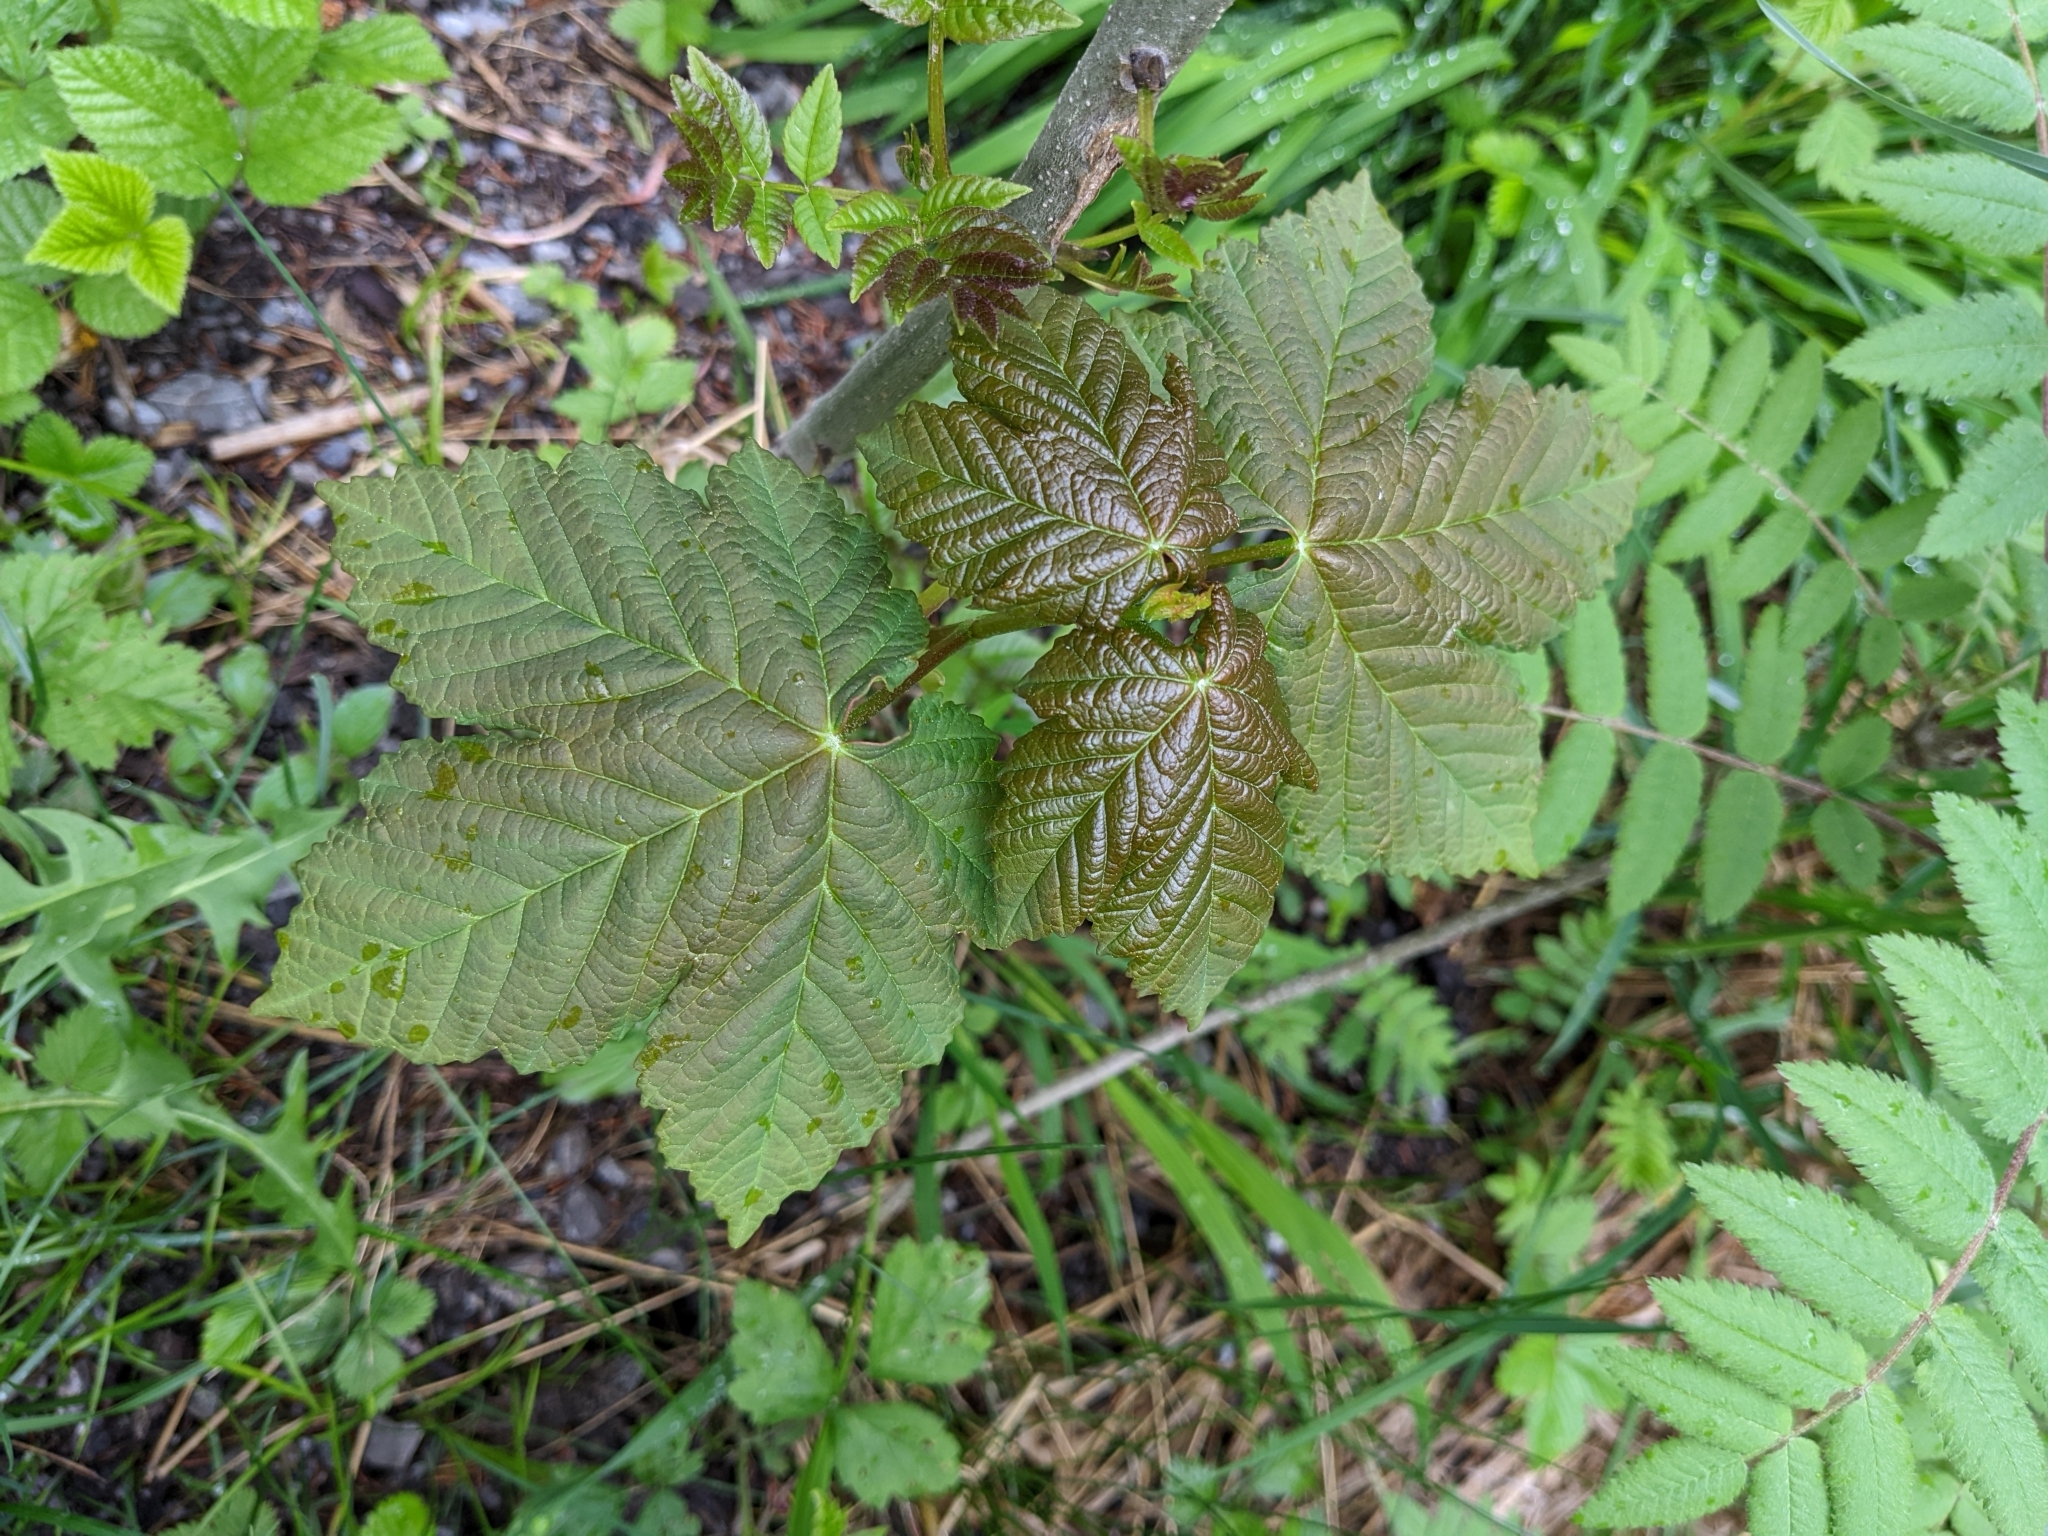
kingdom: Plantae
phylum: Tracheophyta
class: Magnoliopsida
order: Sapindales
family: Sapindaceae
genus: Acer
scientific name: Acer pseudoplatanus
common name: Sycamore
